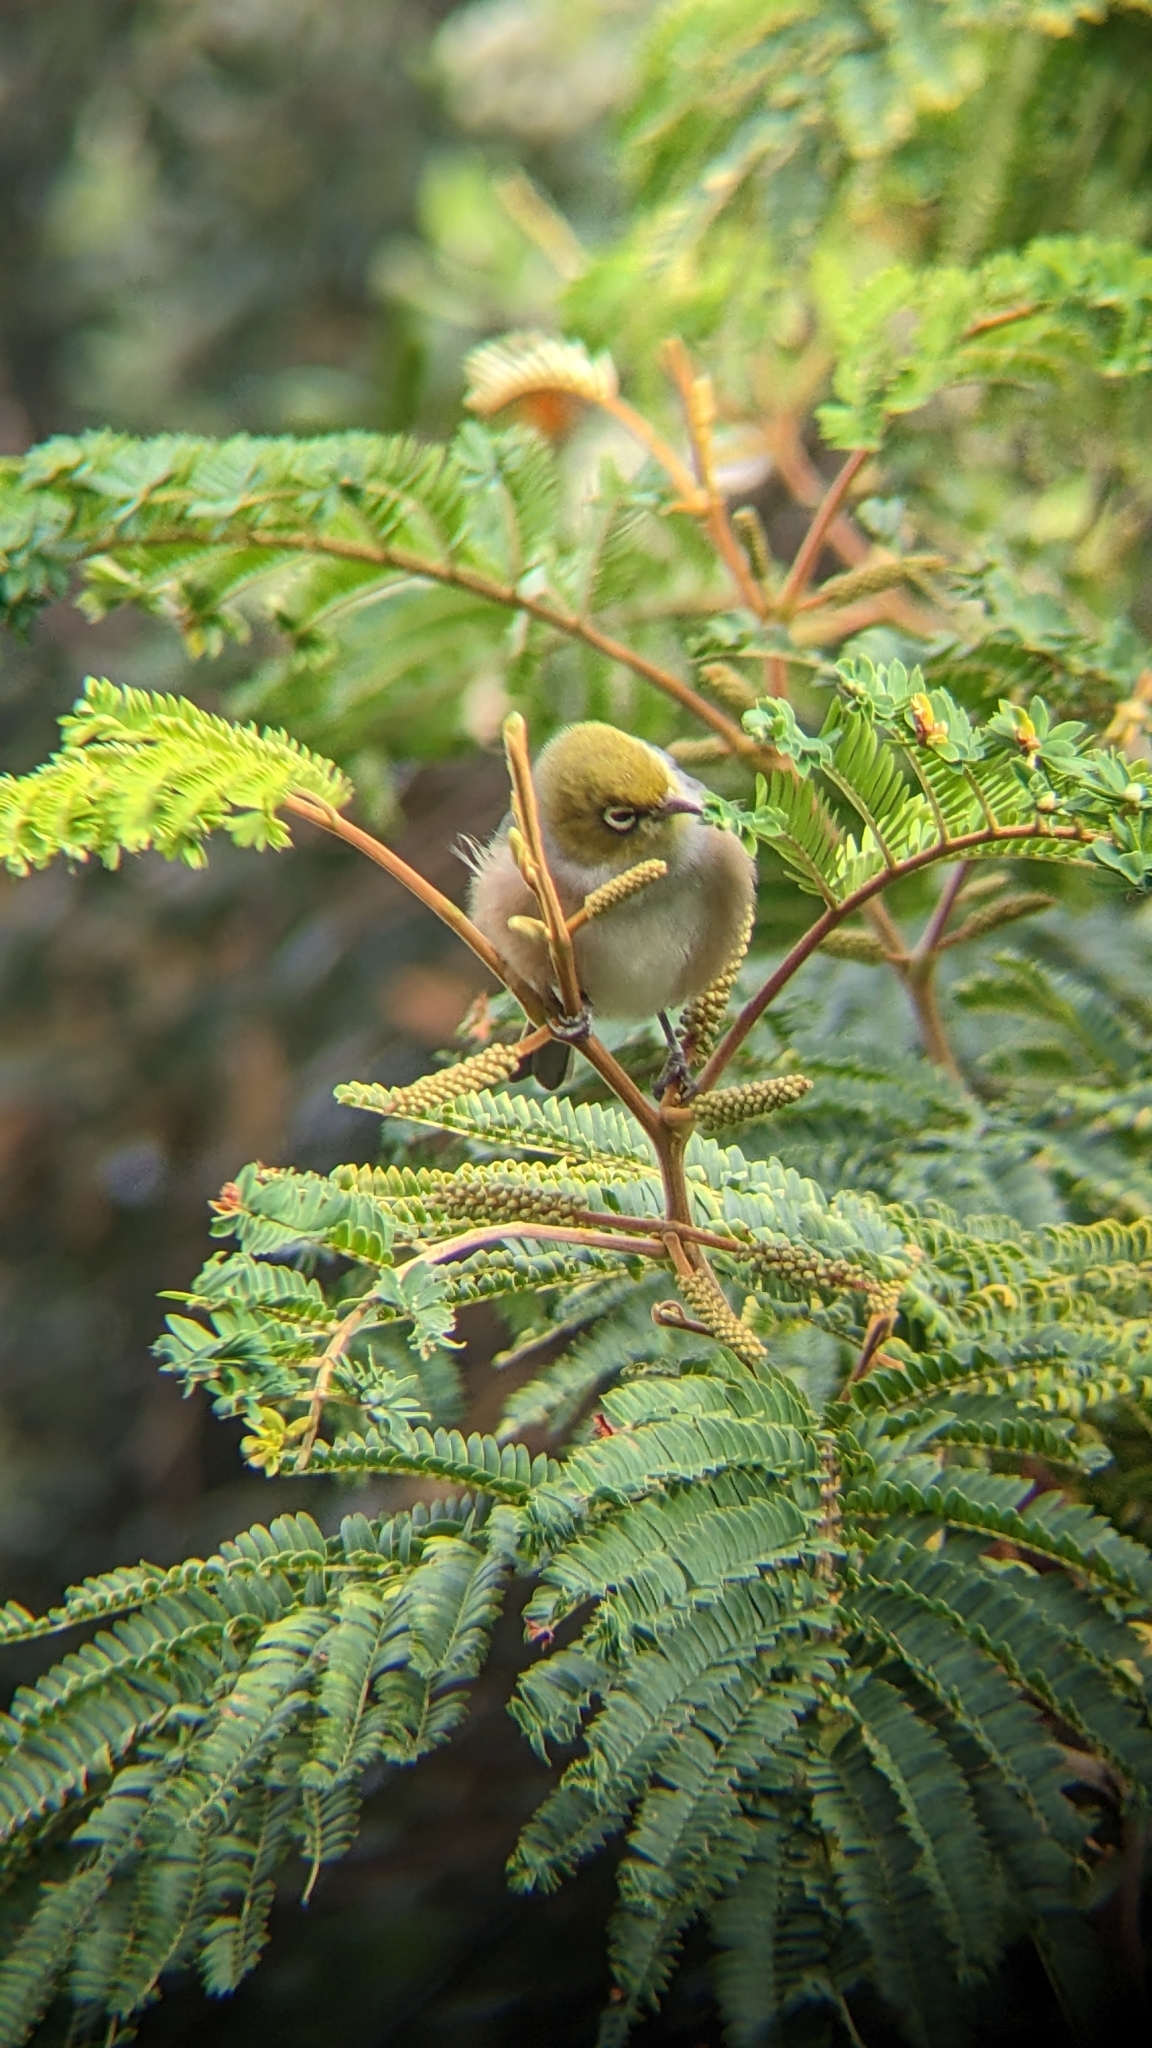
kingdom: Animalia
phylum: Chordata
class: Aves
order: Passeriformes
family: Zosteropidae
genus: Zosterops
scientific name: Zosterops lateralis
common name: Silvereye
